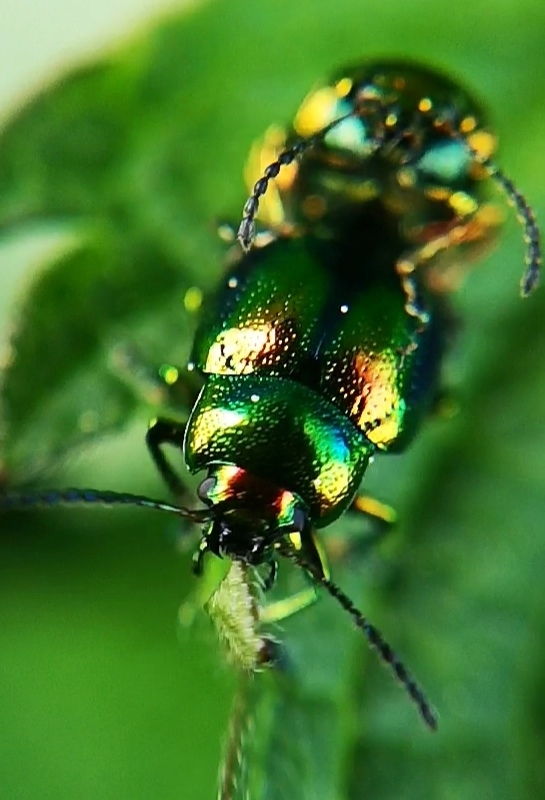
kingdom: Animalia
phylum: Arthropoda
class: Insecta
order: Coleoptera
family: Chrysomelidae
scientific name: Chrysomelidae
